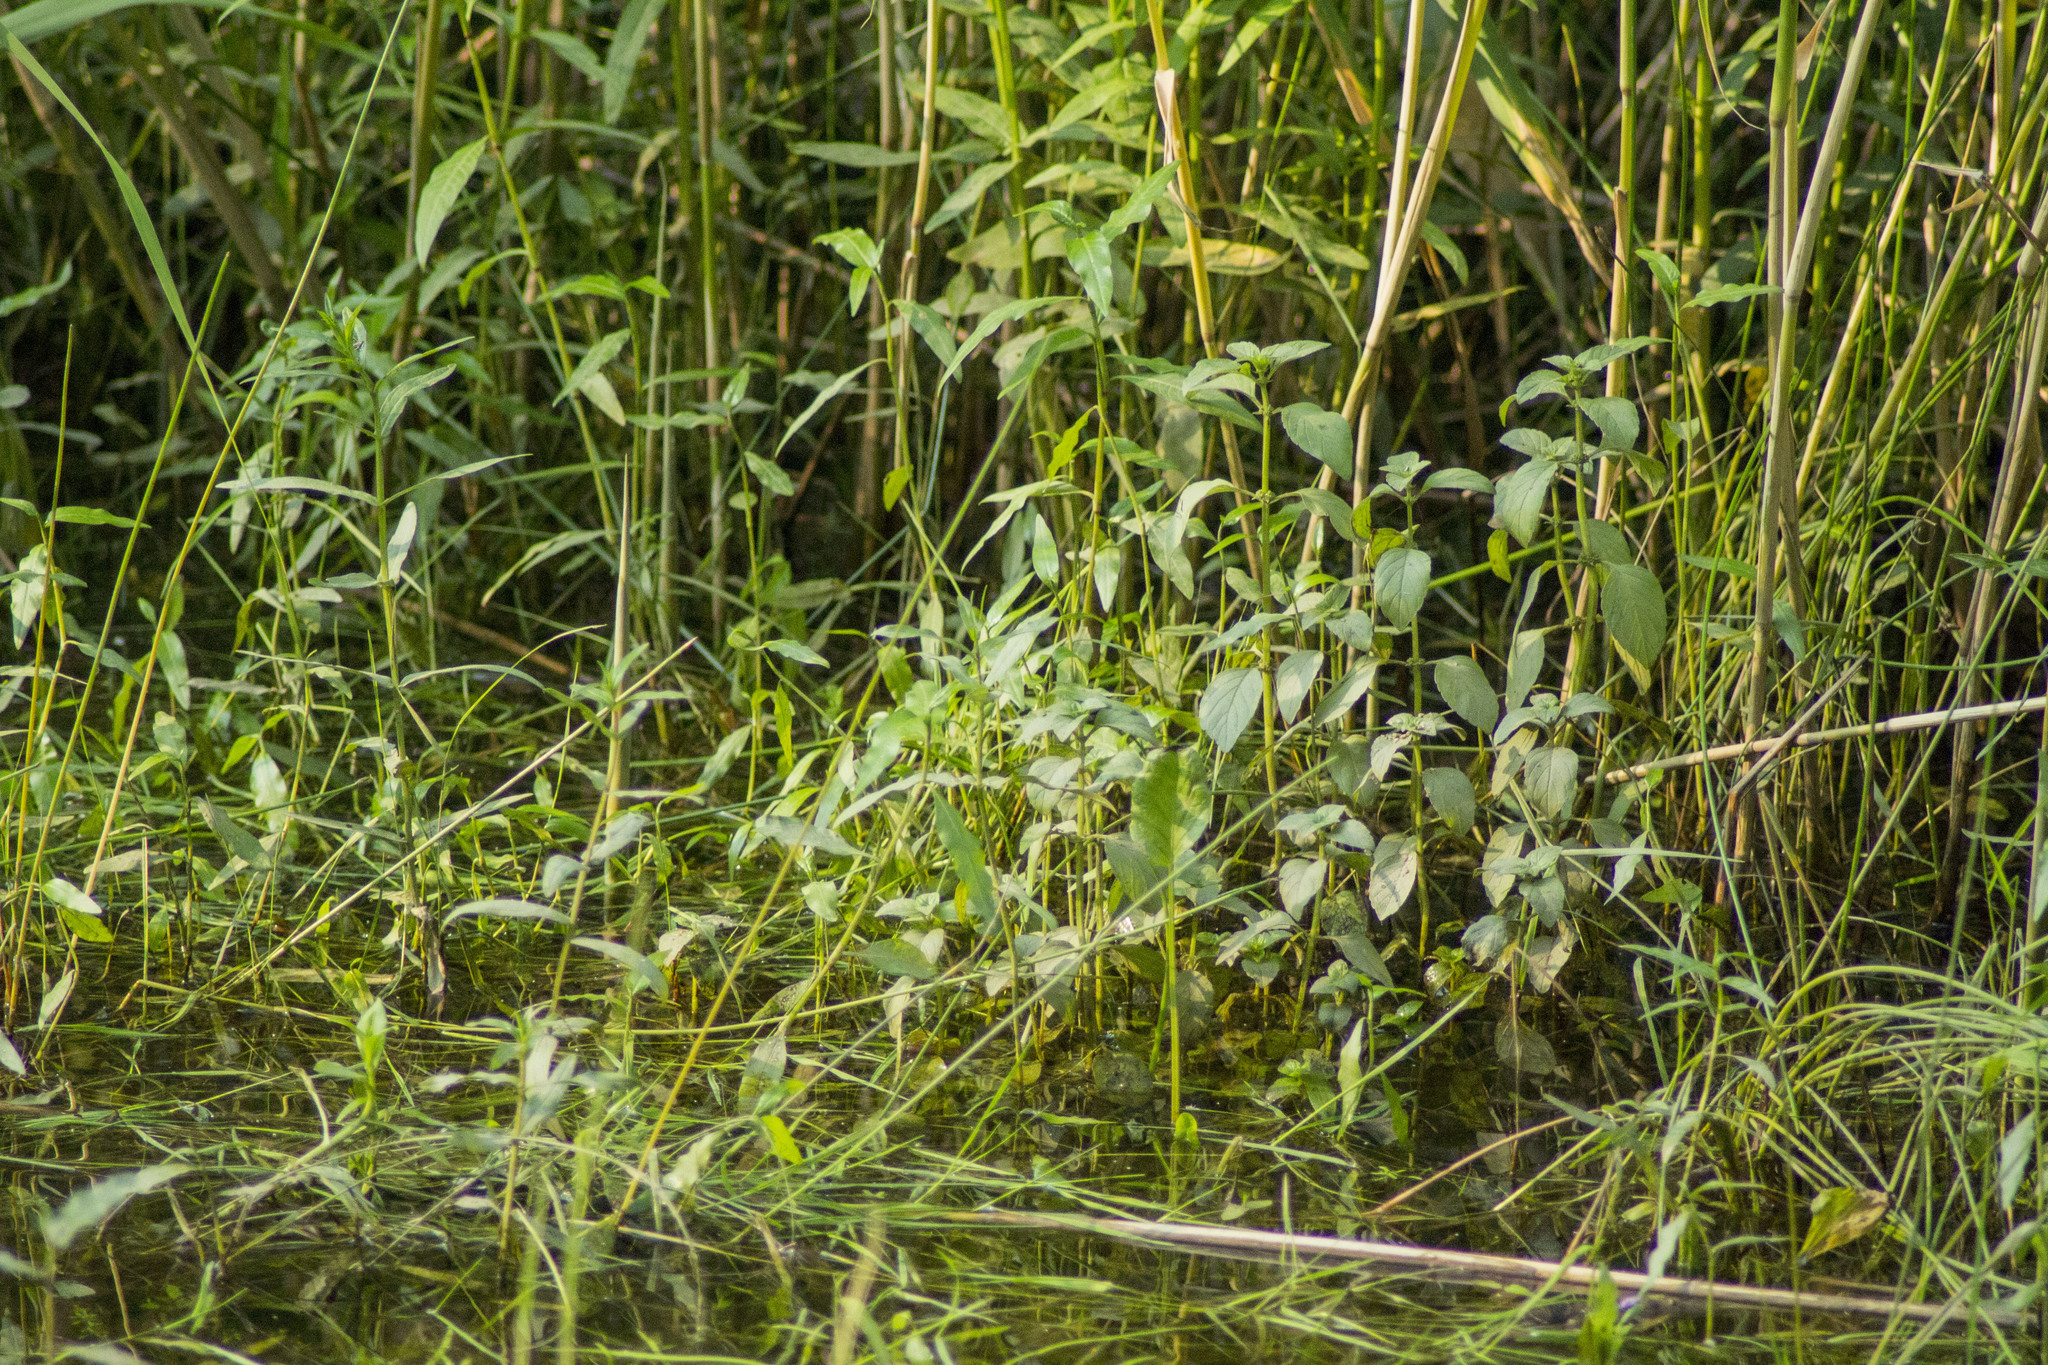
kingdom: Plantae
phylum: Tracheophyta
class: Magnoliopsida
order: Lamiales
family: Lamiaceae
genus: Mentha
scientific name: Mentha arvensis
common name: Corn mint
